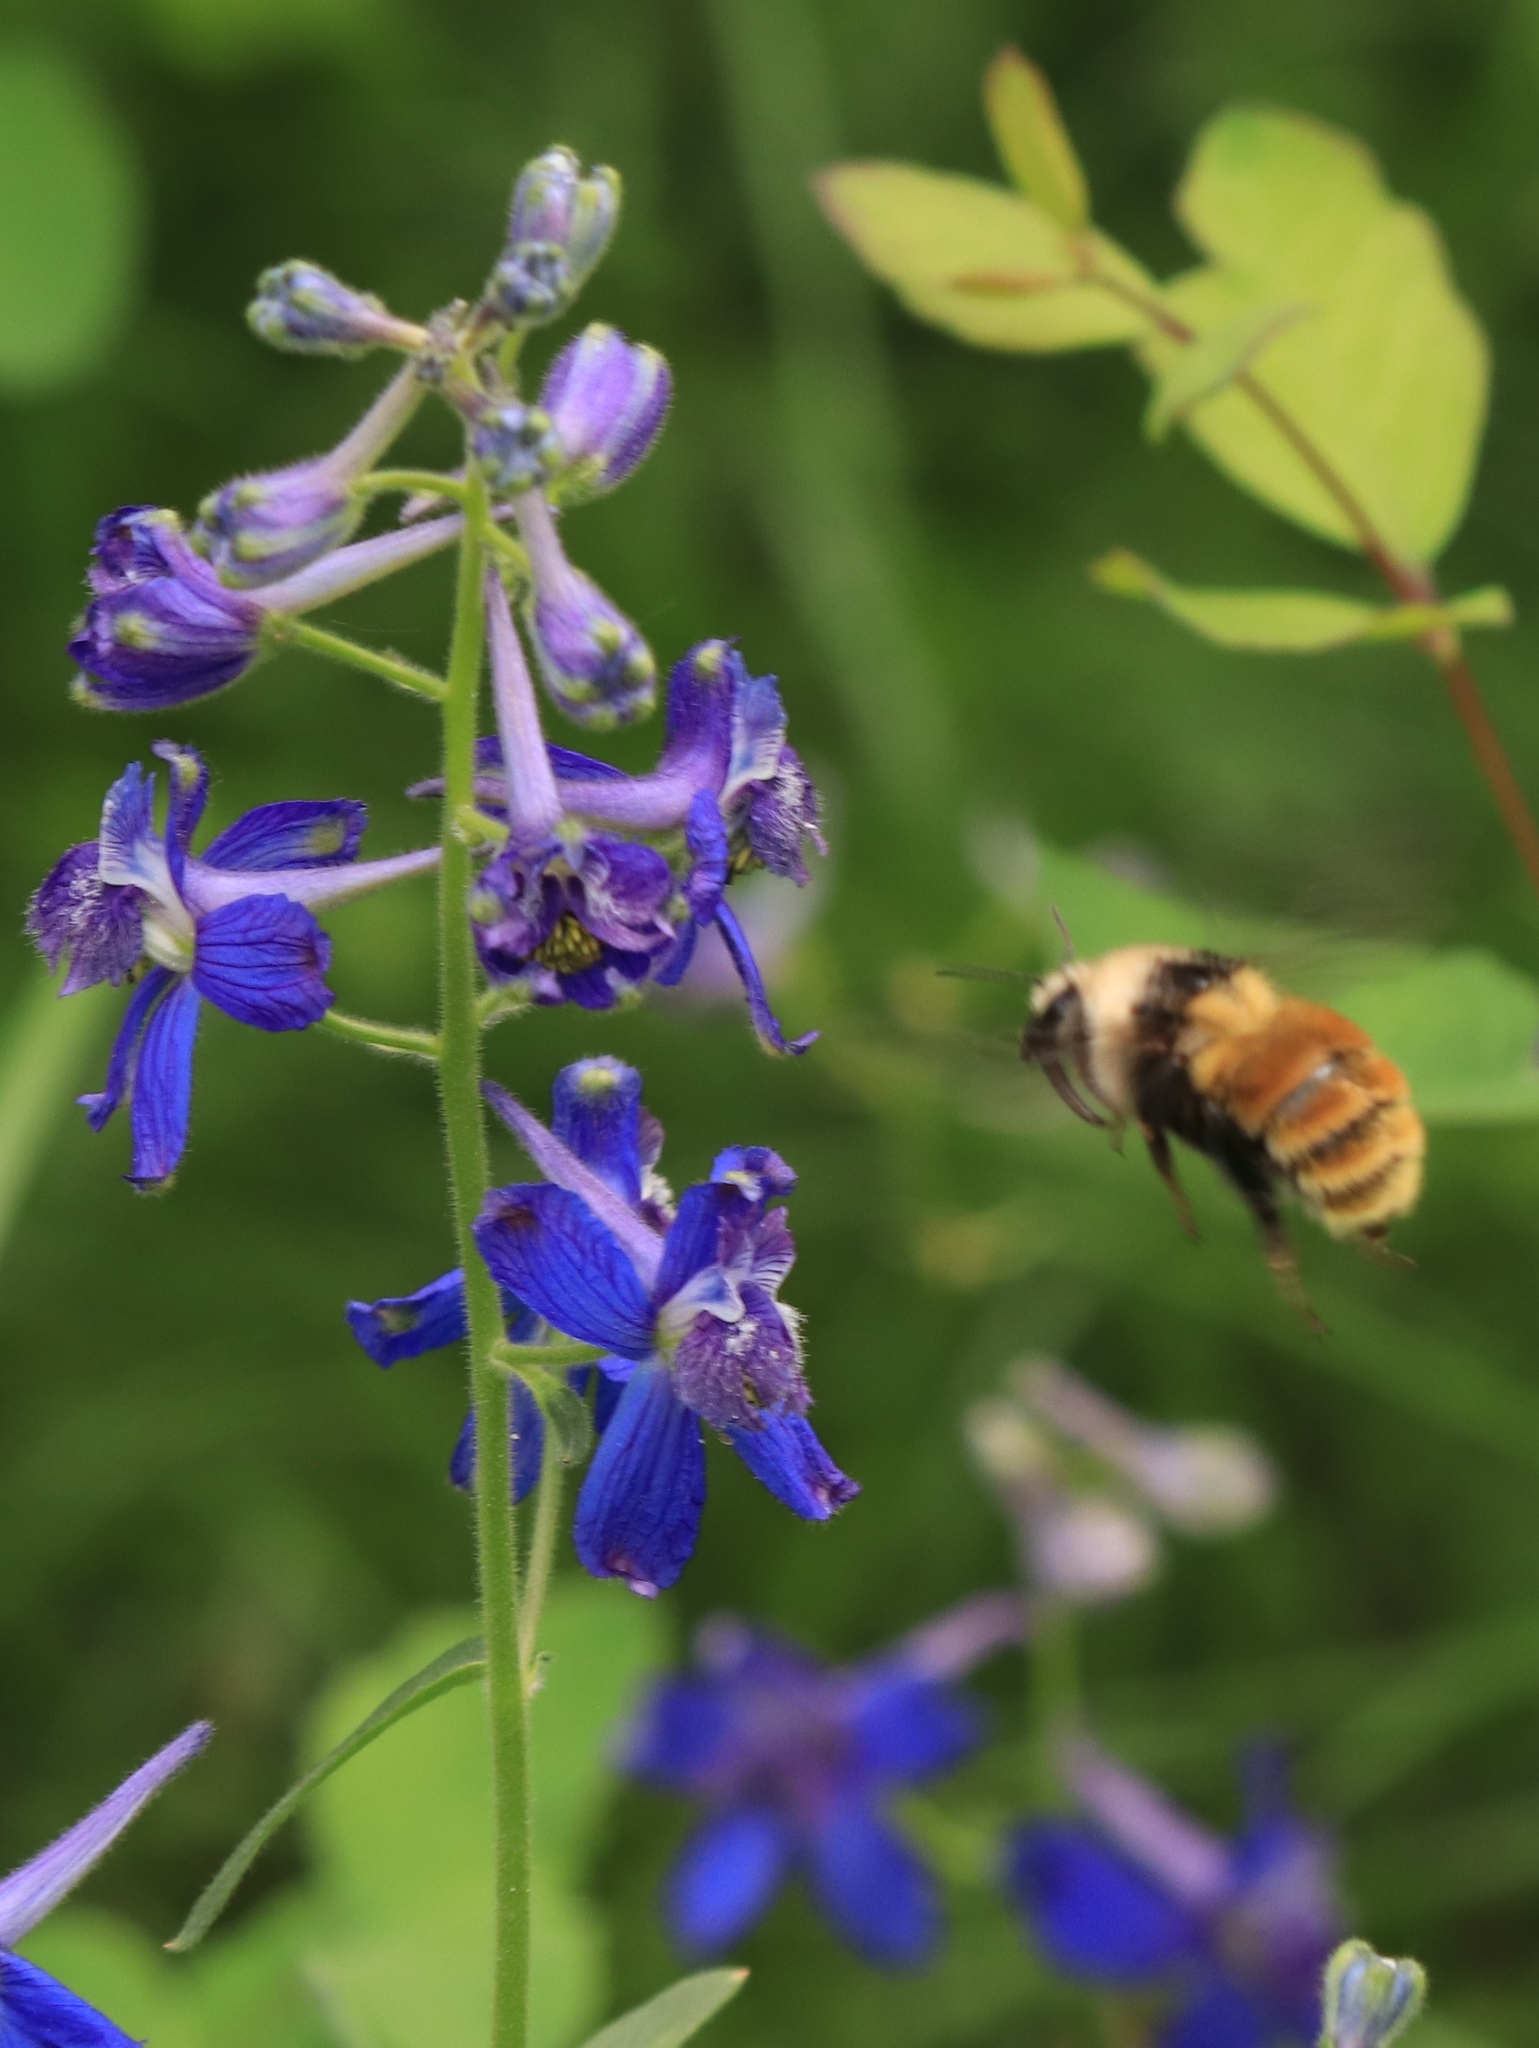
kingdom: Plantae
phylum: Tracheophyta
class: Magnoliopsida
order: Ranunculales
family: Ranunculaceae
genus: Delphinium
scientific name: Delphinium nuttallianum
